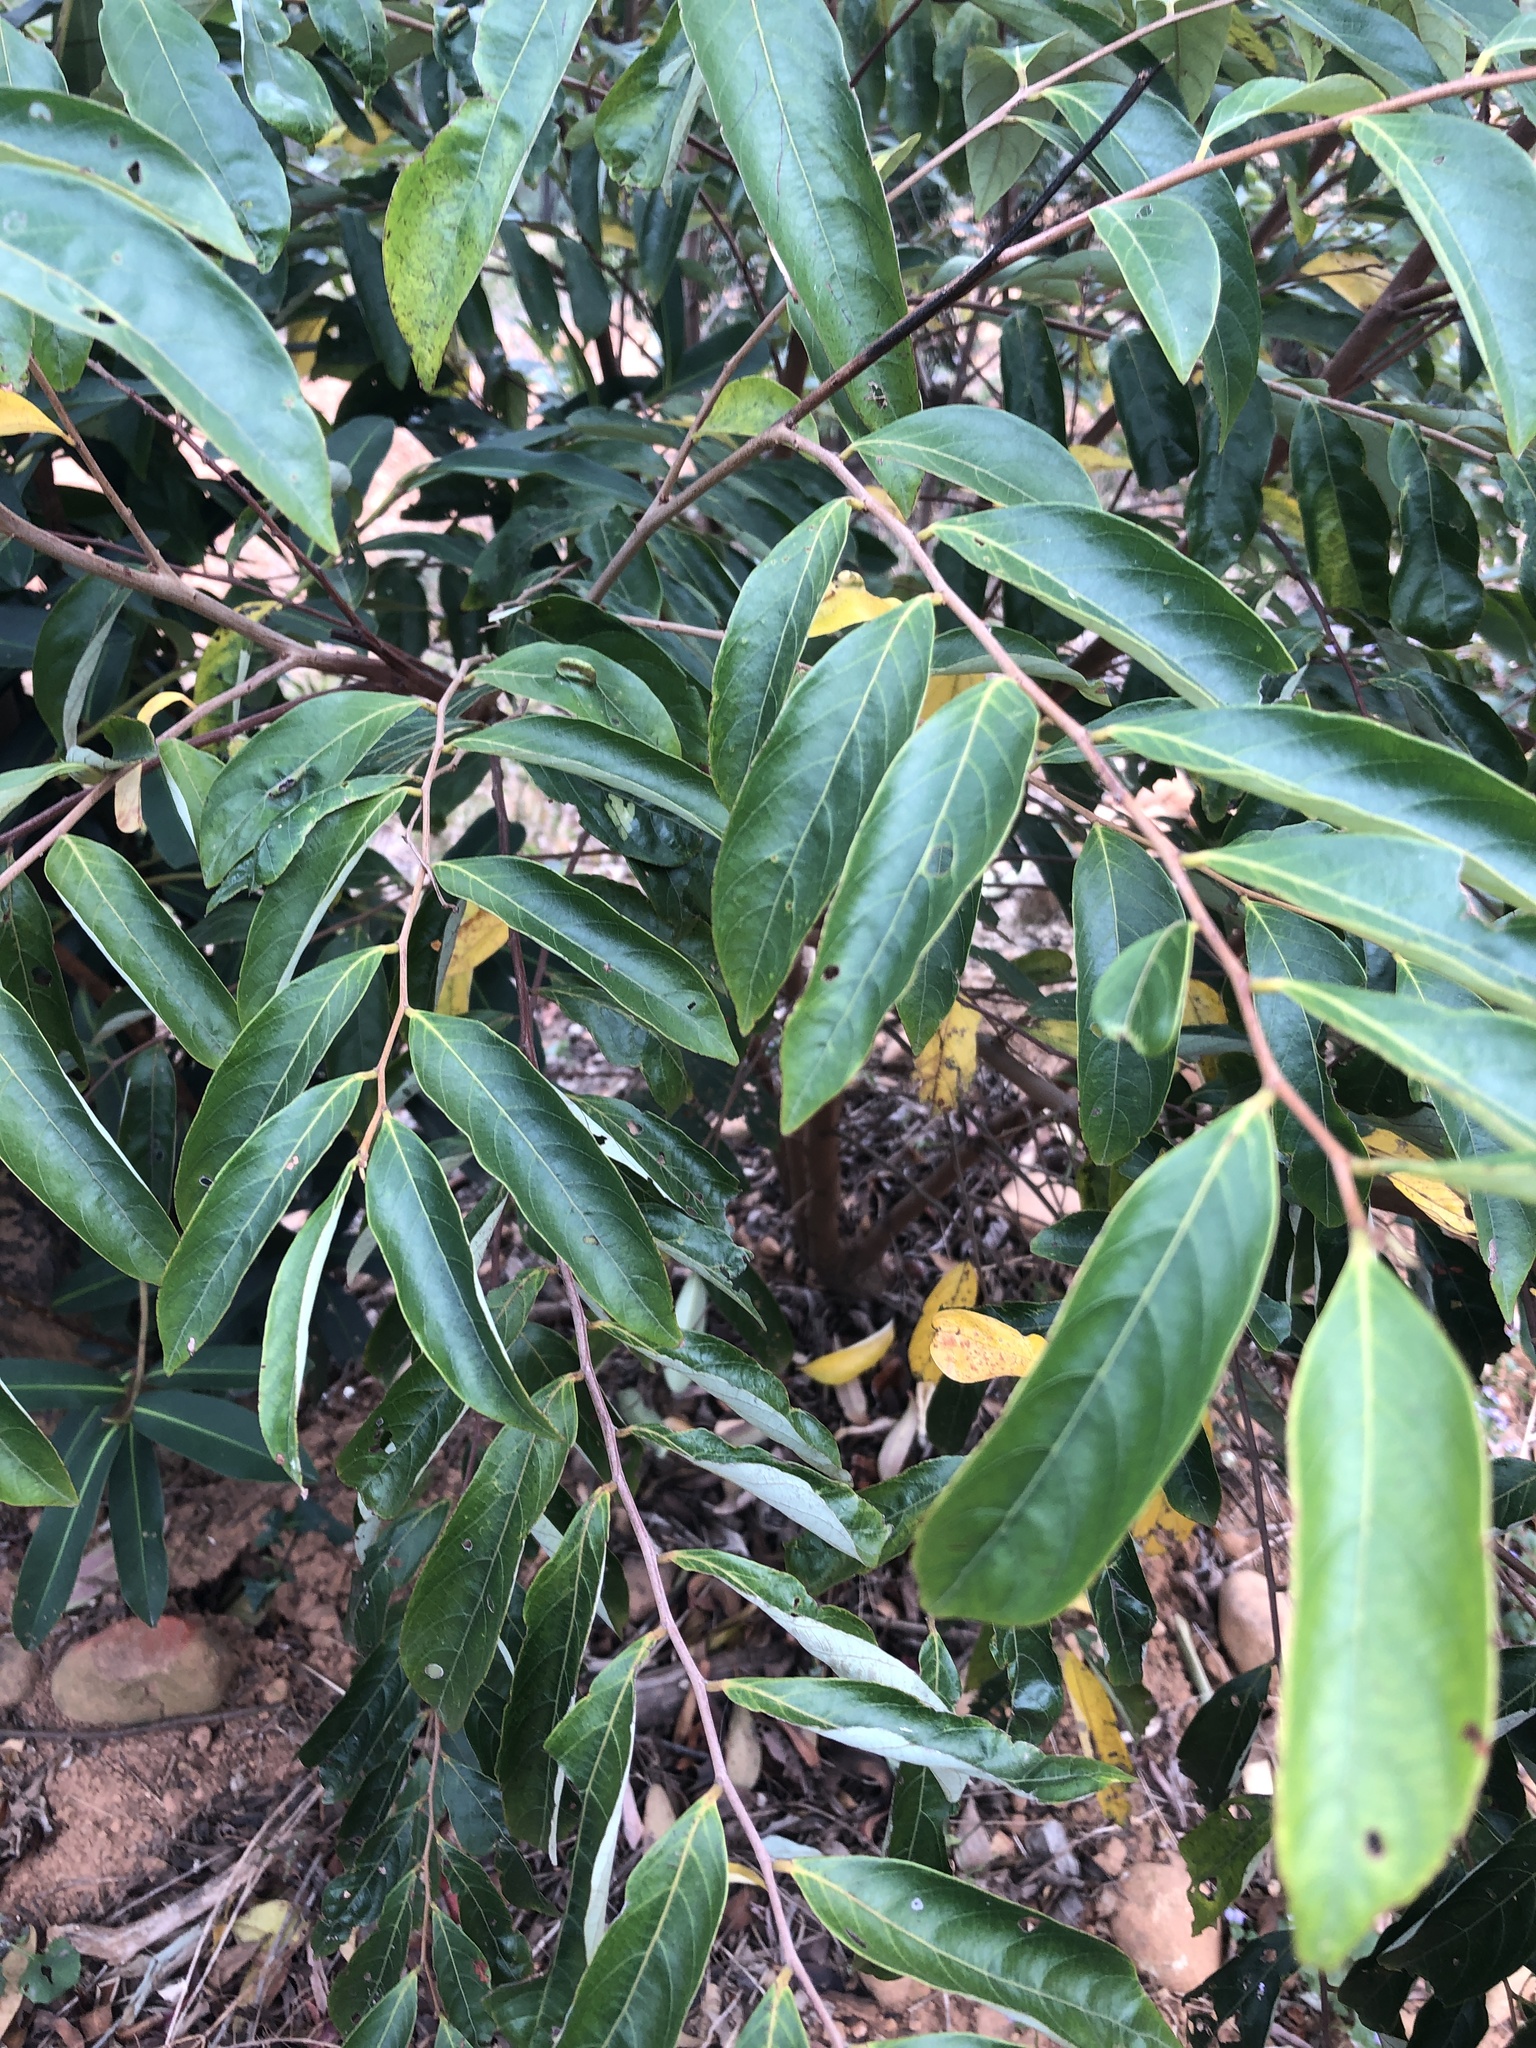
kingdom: Plantae
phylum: Tracheophyta
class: Magnoliopsida
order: Malpighiales
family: Phyllanthaceae
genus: Glochidion
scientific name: Glochidion acuminatum
